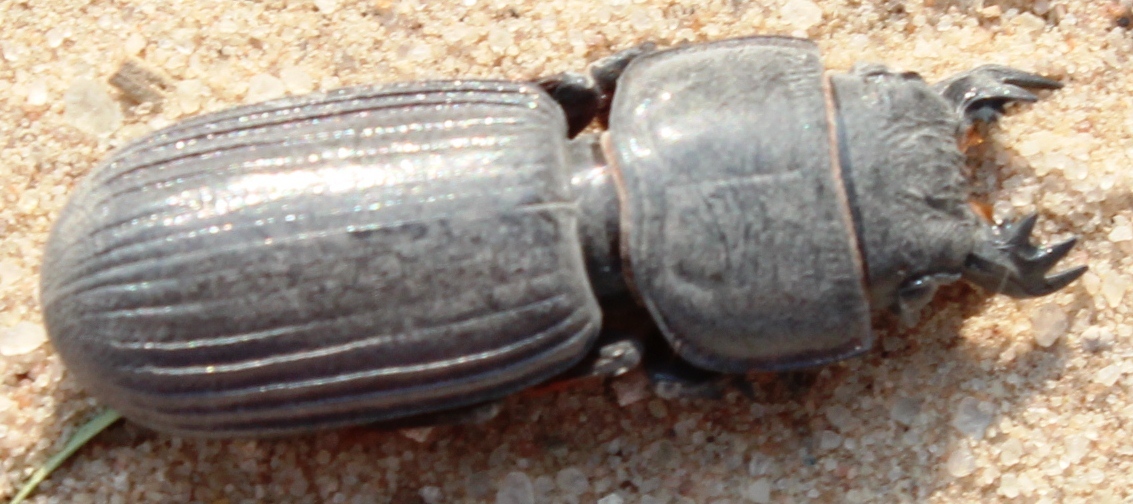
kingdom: Animalia
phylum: Arthropoda
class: Insecta
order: Coleoptera
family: Carabidae
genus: Passalidius
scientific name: Passalidius fortipes
